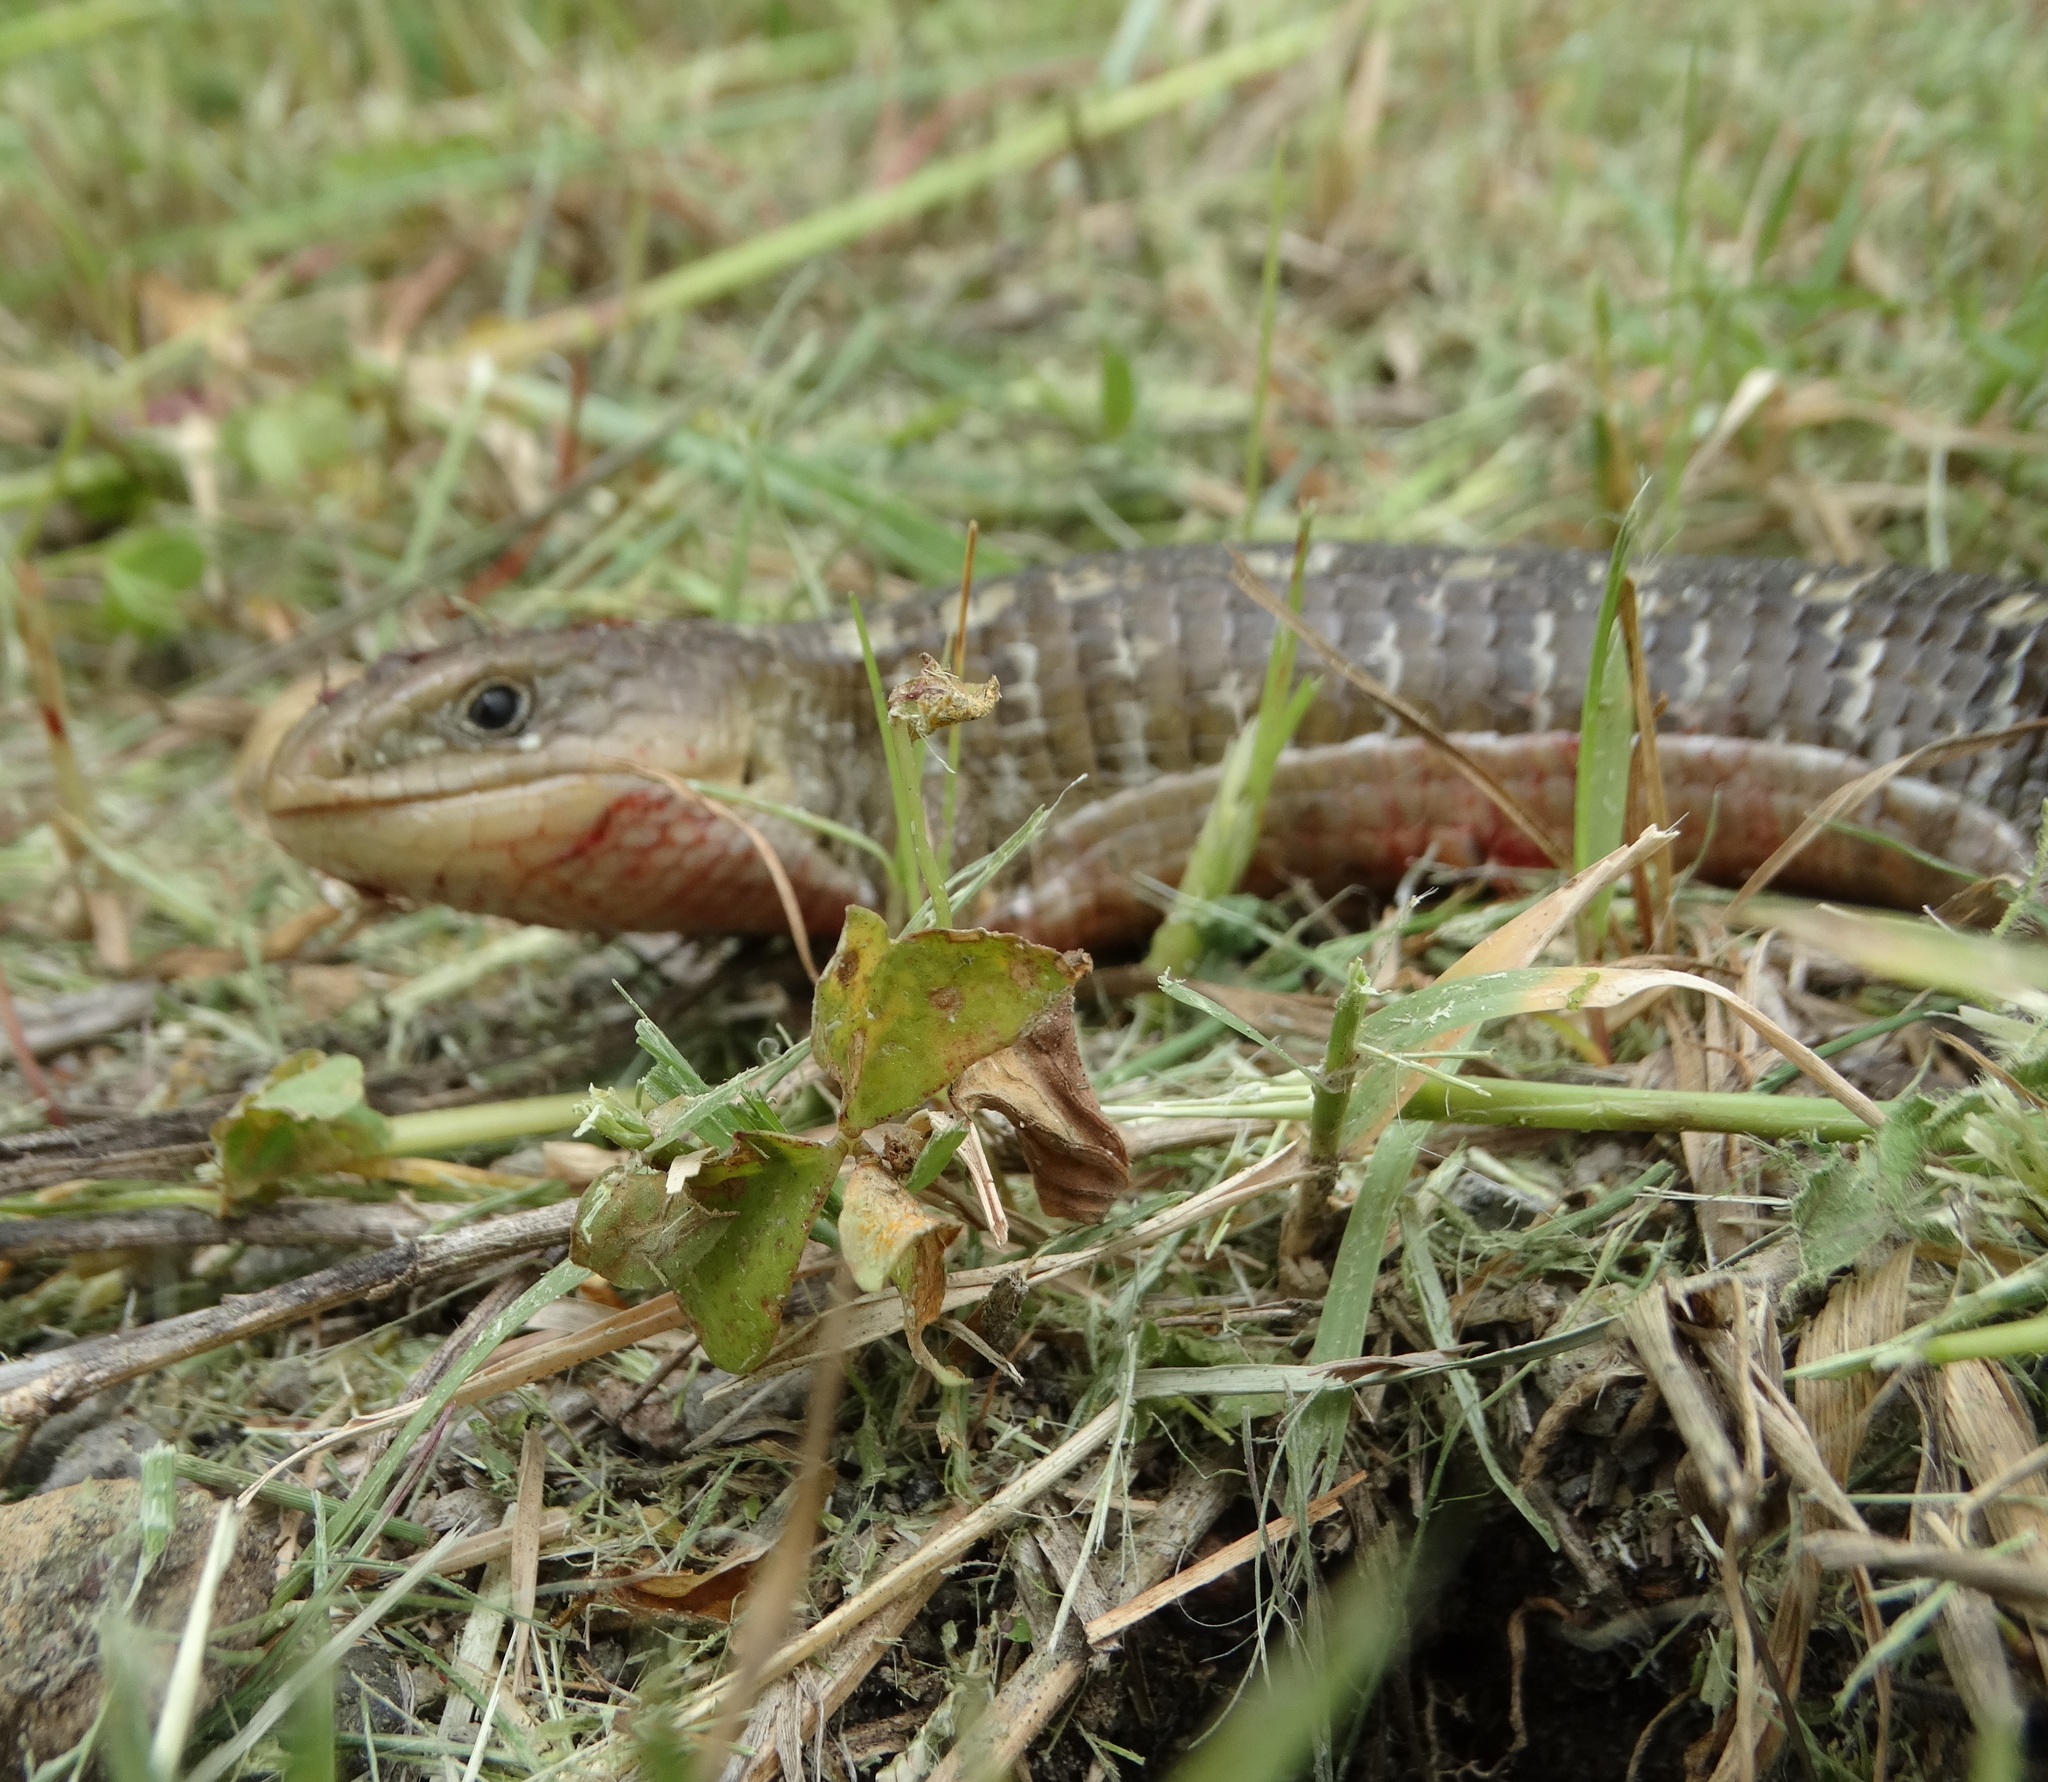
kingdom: Animalia
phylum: Chordata
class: Squamata
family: Anguidae
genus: Barisia
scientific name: Barisia imbricata
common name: Imbricate alligator lizard
